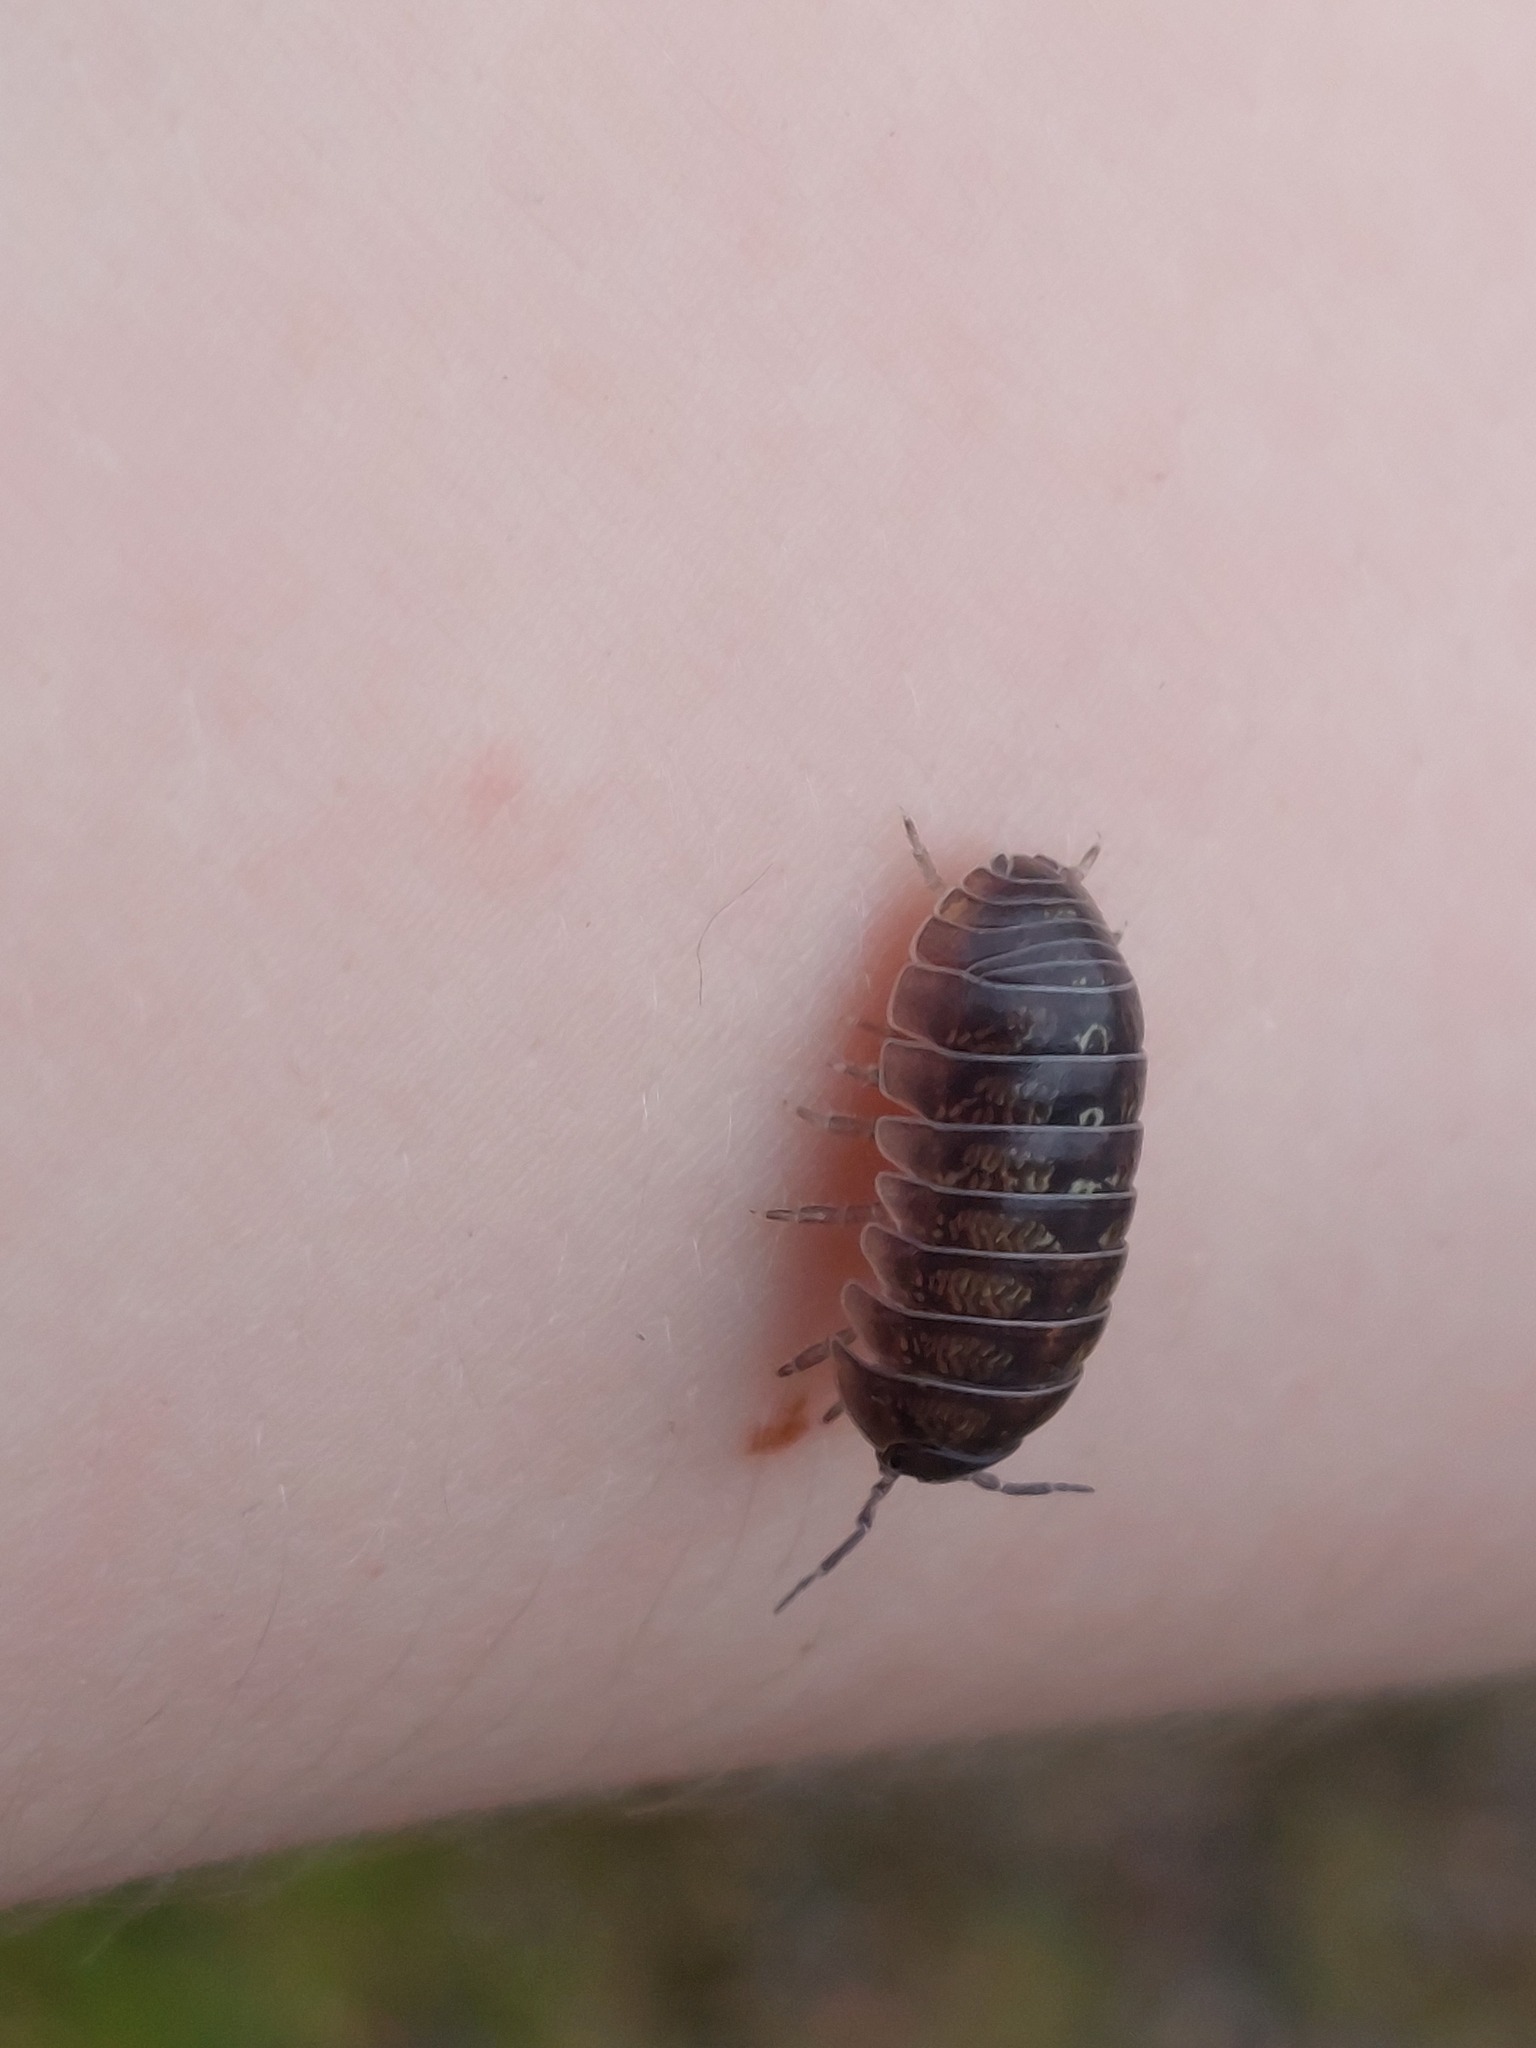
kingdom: Animalia
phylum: Arthropoda
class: Malacostraca
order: Isopoda
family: Armadillidiidae
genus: Armadillidium
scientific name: Armadillidium vulgare
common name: Common pill woodlouse
